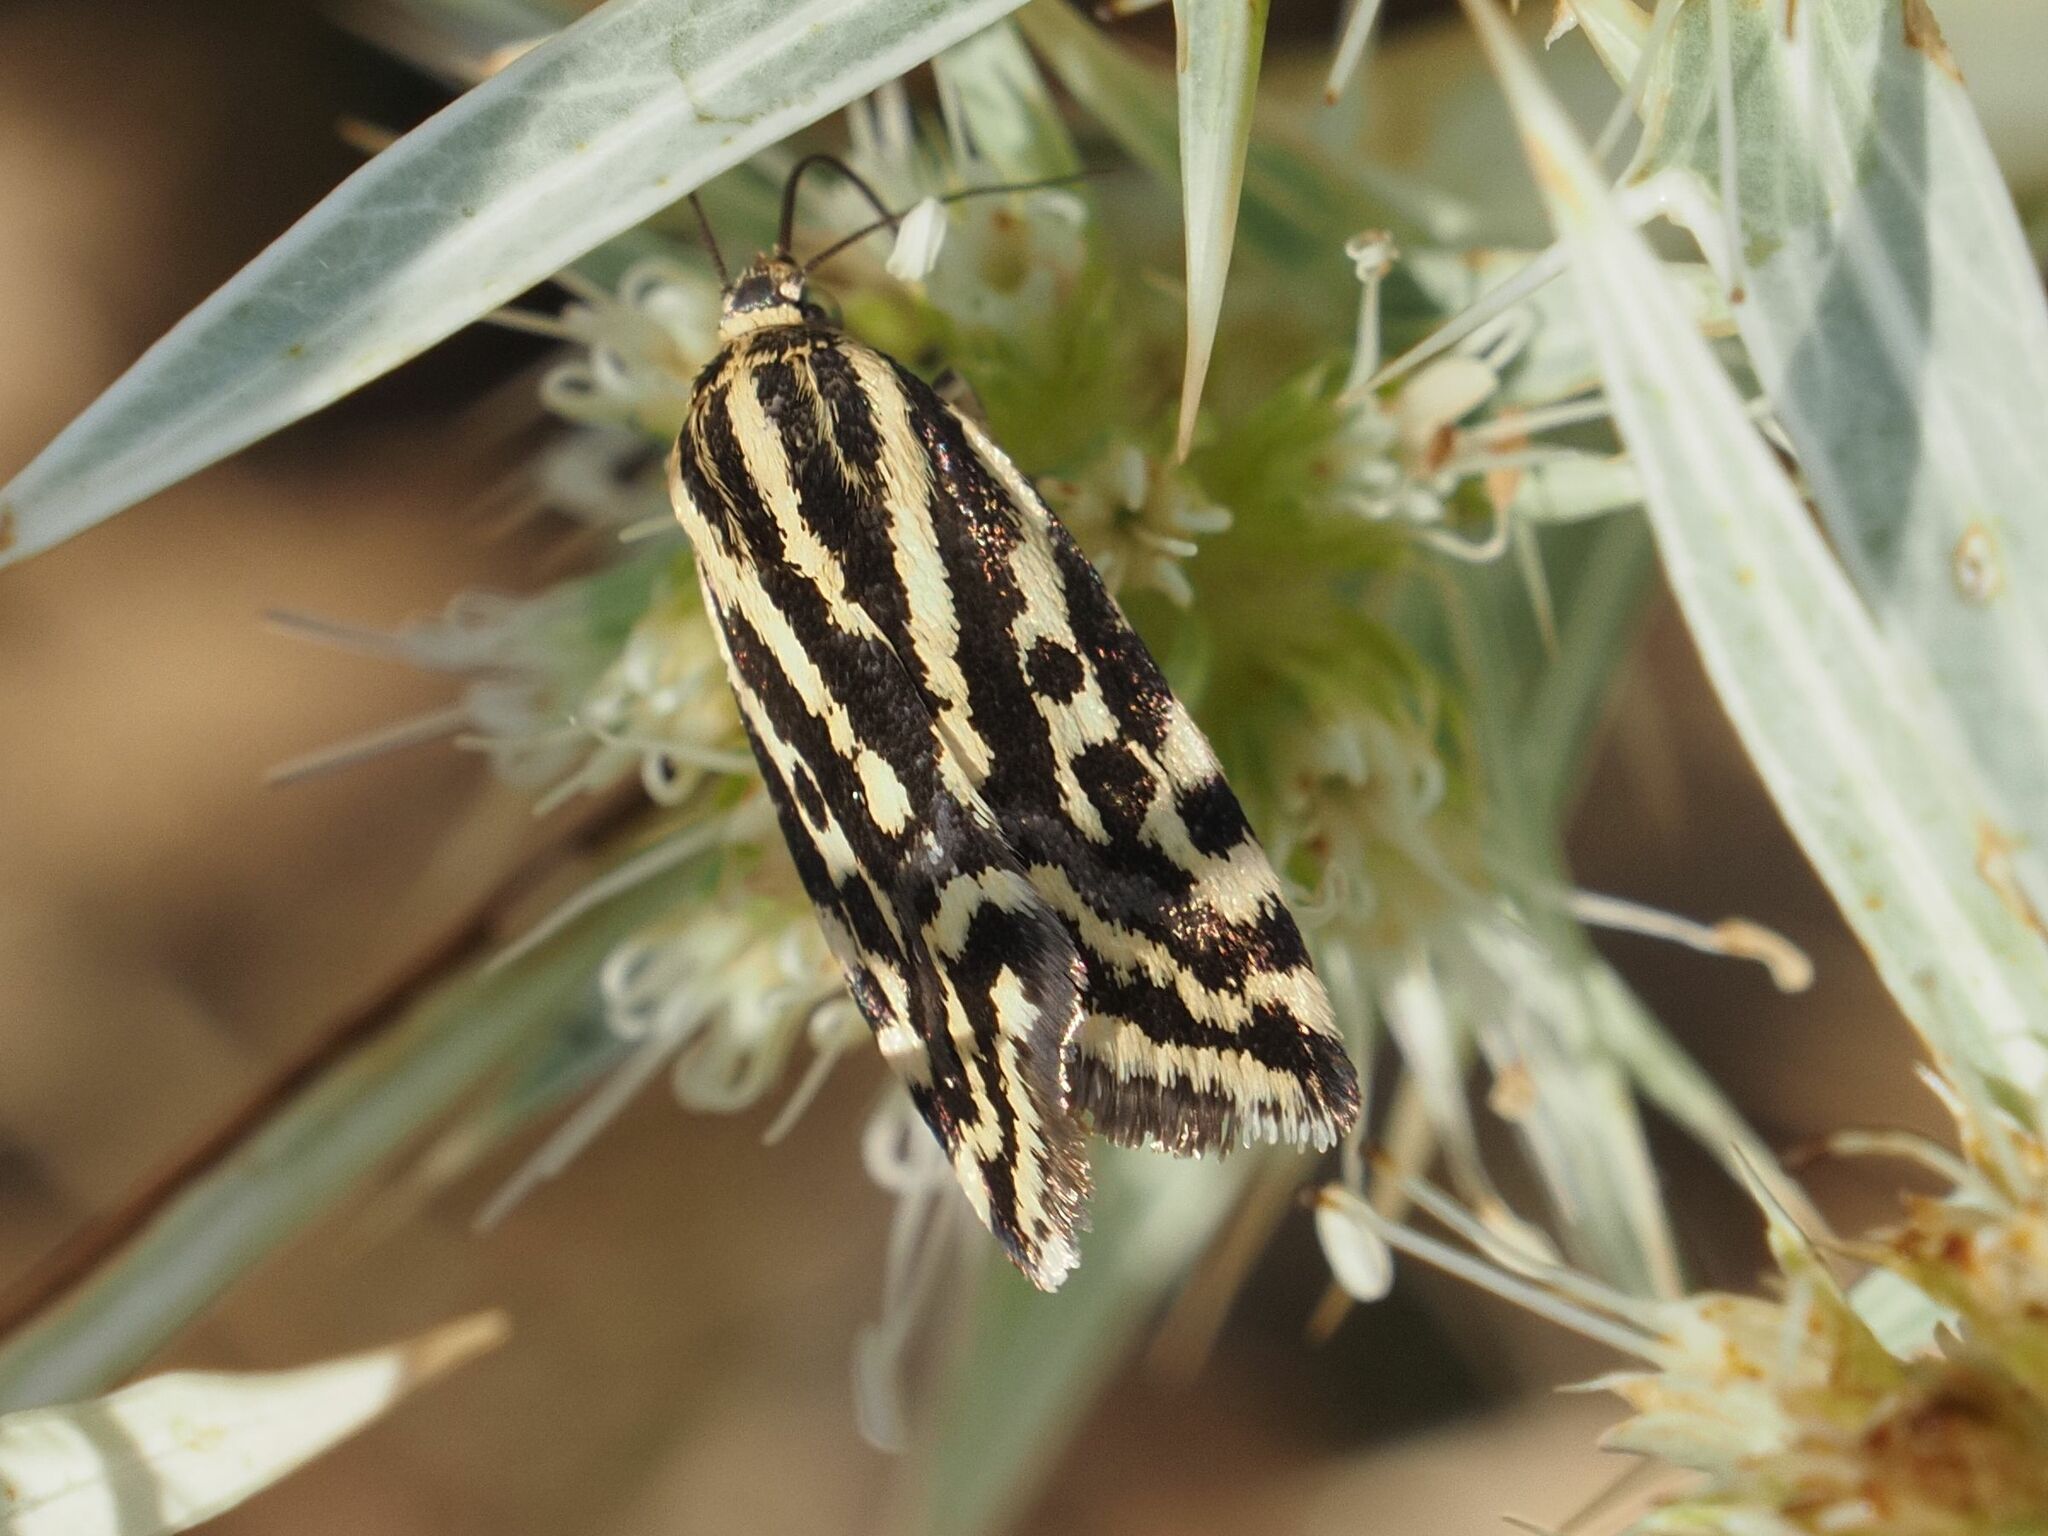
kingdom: Animalia
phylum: Arthropoda
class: Insecta
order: Lepidoptera
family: Noctuidae
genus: Acontia
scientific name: Acontia trabealis
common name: Spotted sulphur
